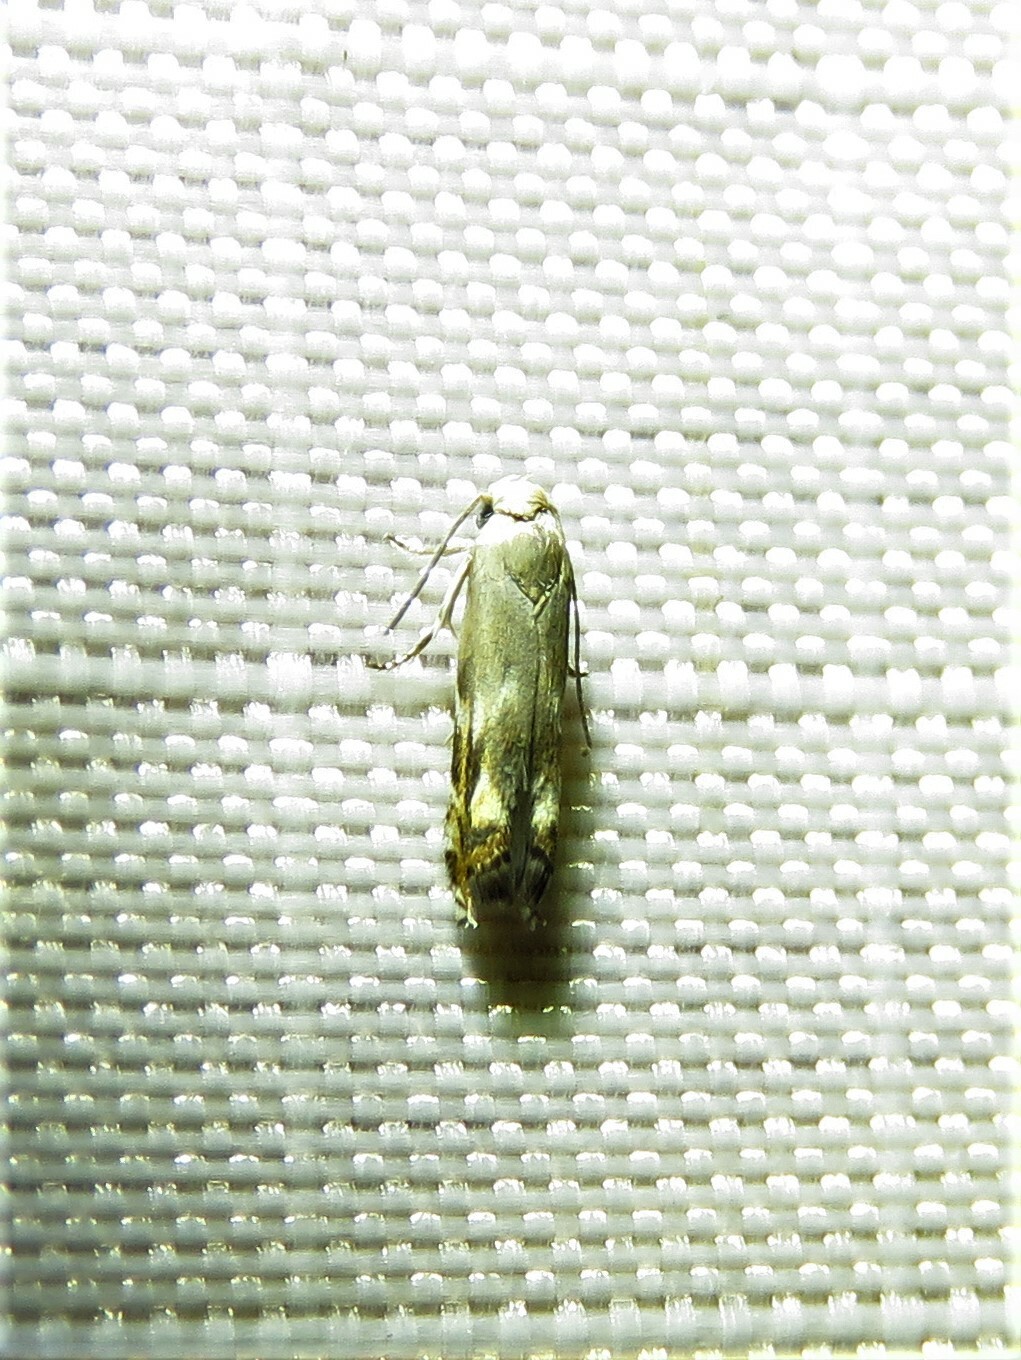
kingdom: Animalia
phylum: Arthropoda
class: Insecta
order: Lepidoptera
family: Gelechiidae
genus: Calliprora
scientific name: Calliprora sexstrigella
